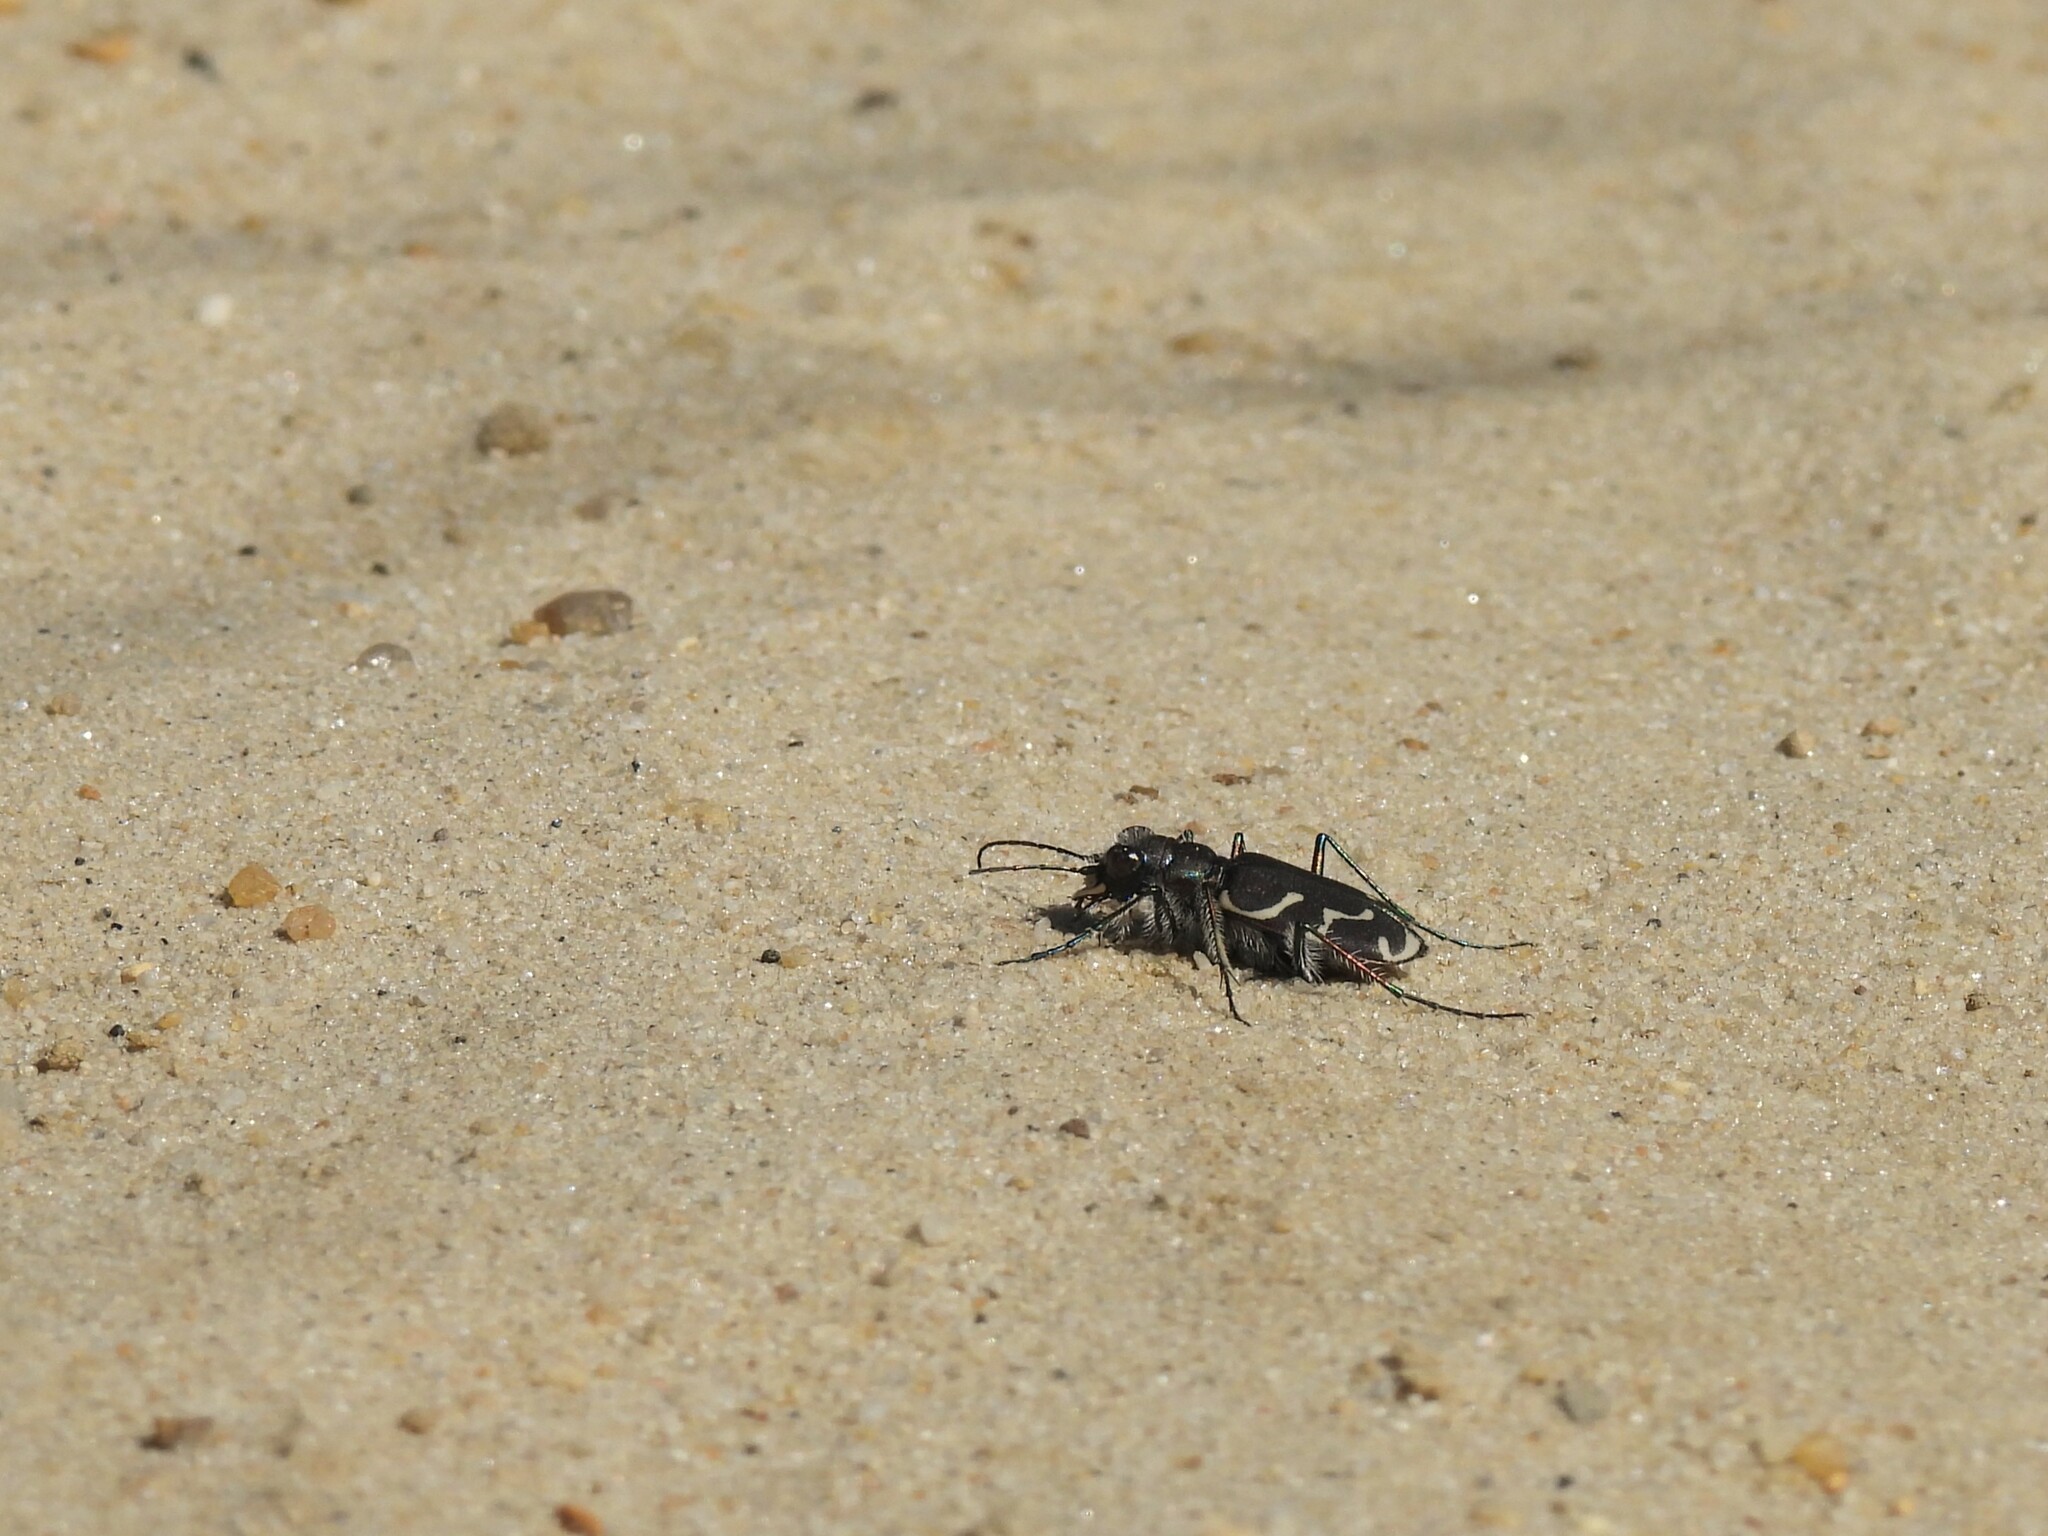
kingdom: Animalia
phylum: Arthropoda
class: Insecta
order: Coleoptera
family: Carabidae
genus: Cicindela
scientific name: Cicindela tranquebarica
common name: Oblique-lined tiger beetle
